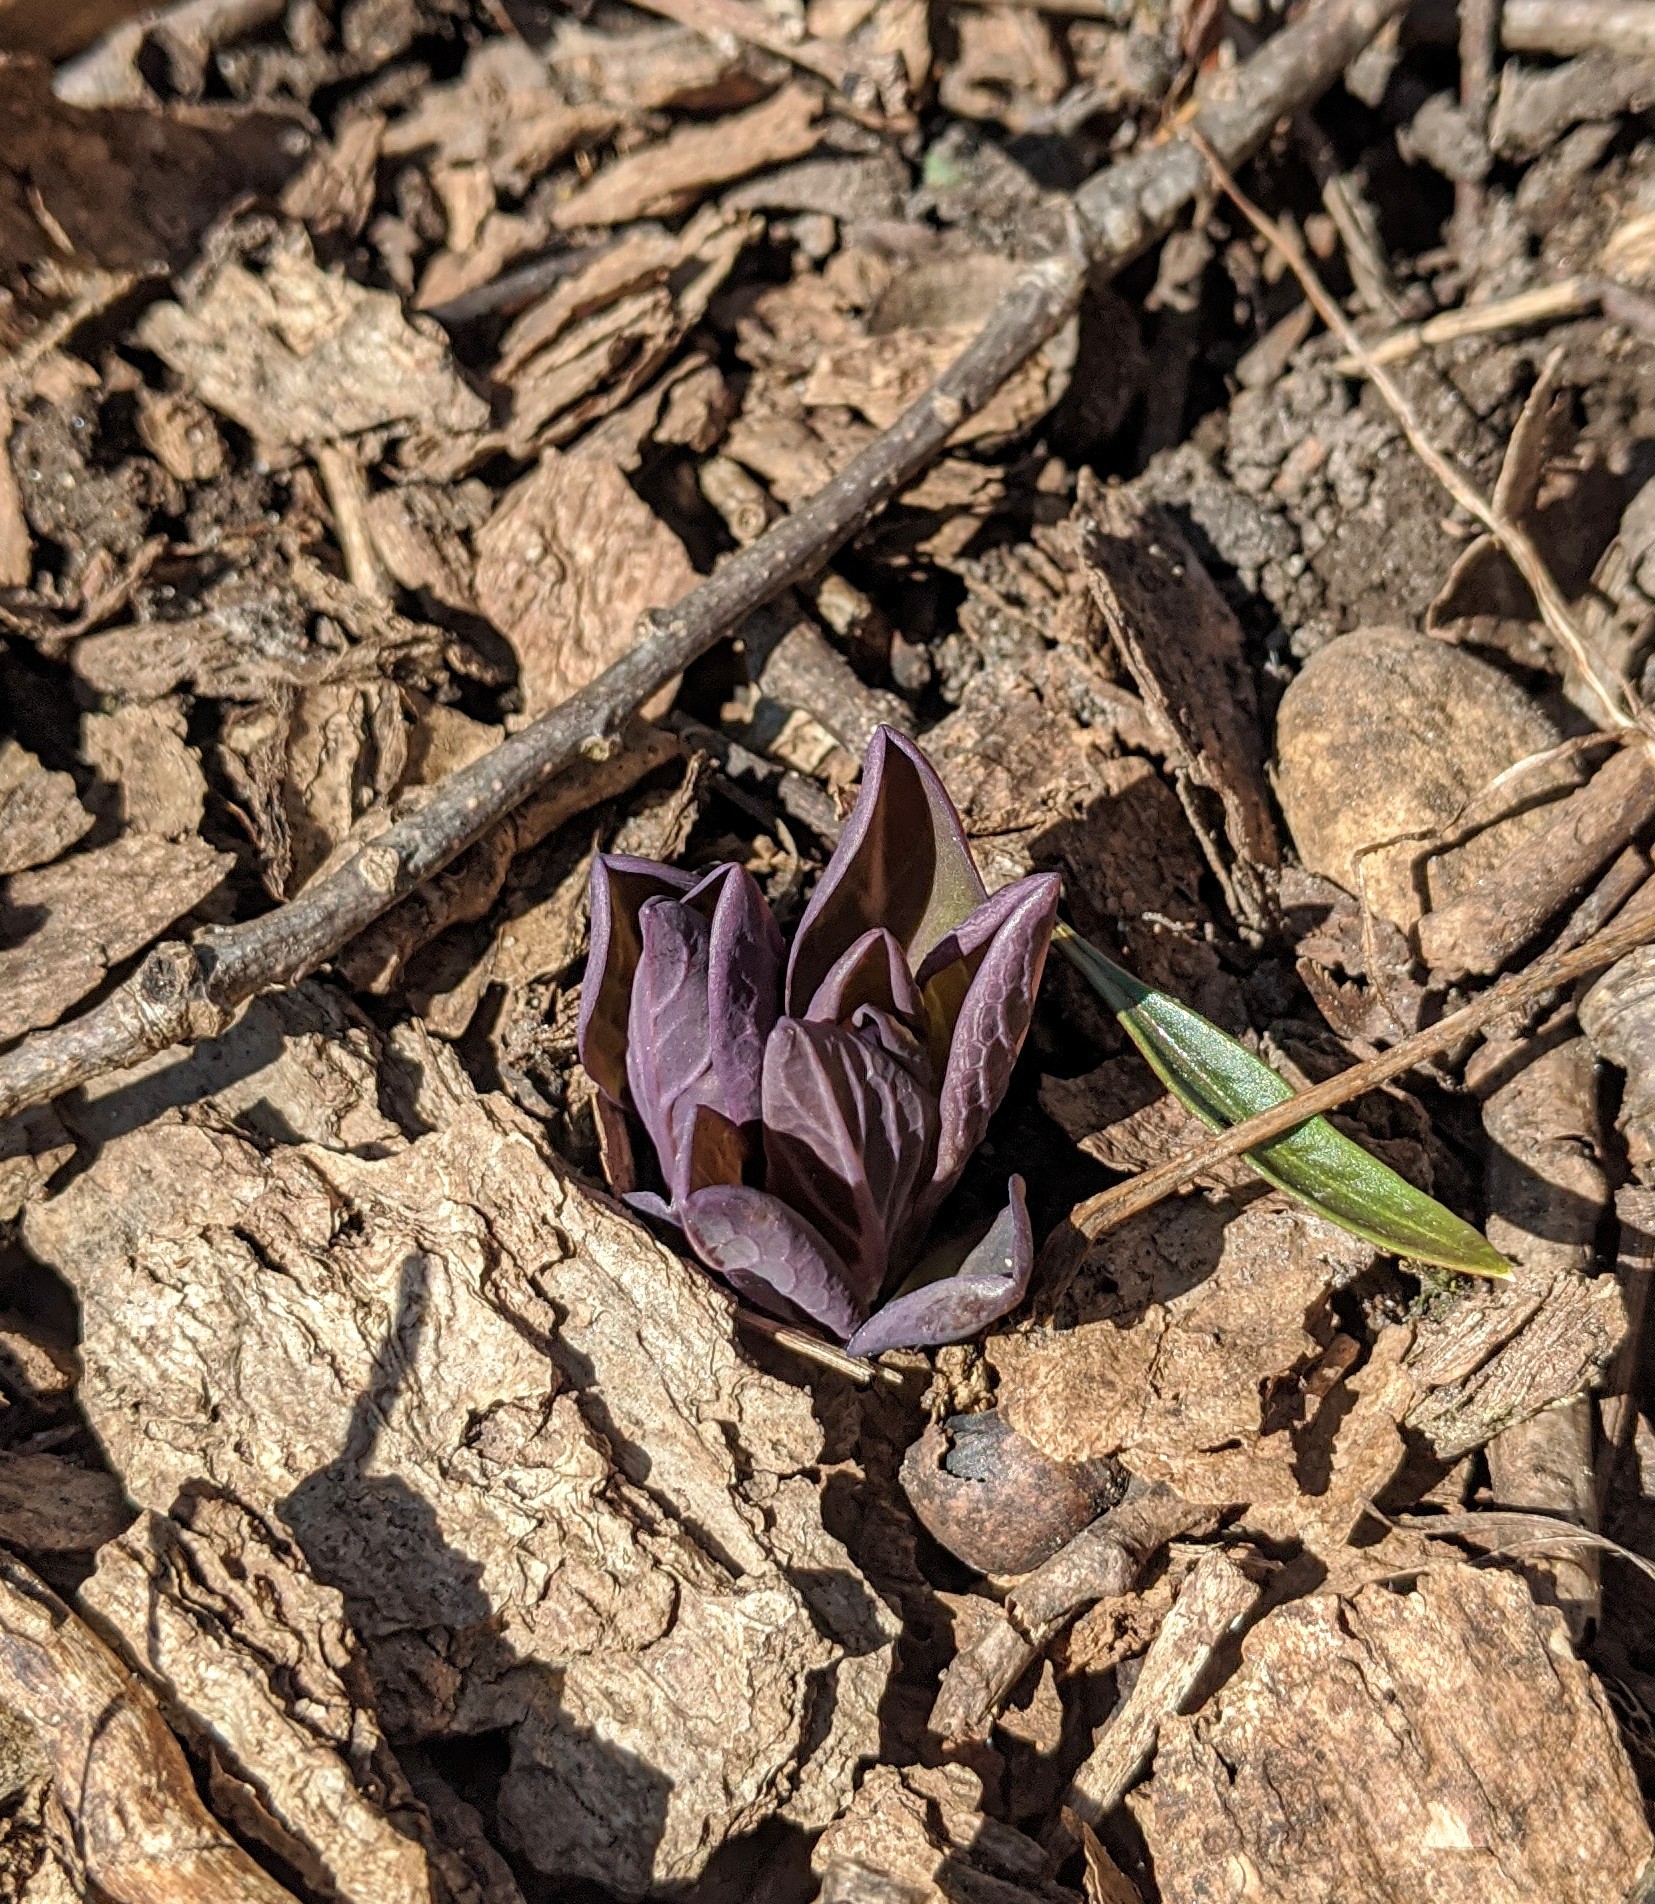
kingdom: Plantae
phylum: Tracheophyta
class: Magnoliopsida
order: Boraginales
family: Boraginaceae
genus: Mertensia
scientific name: Mertensia virginica
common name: Virginia bluebells
